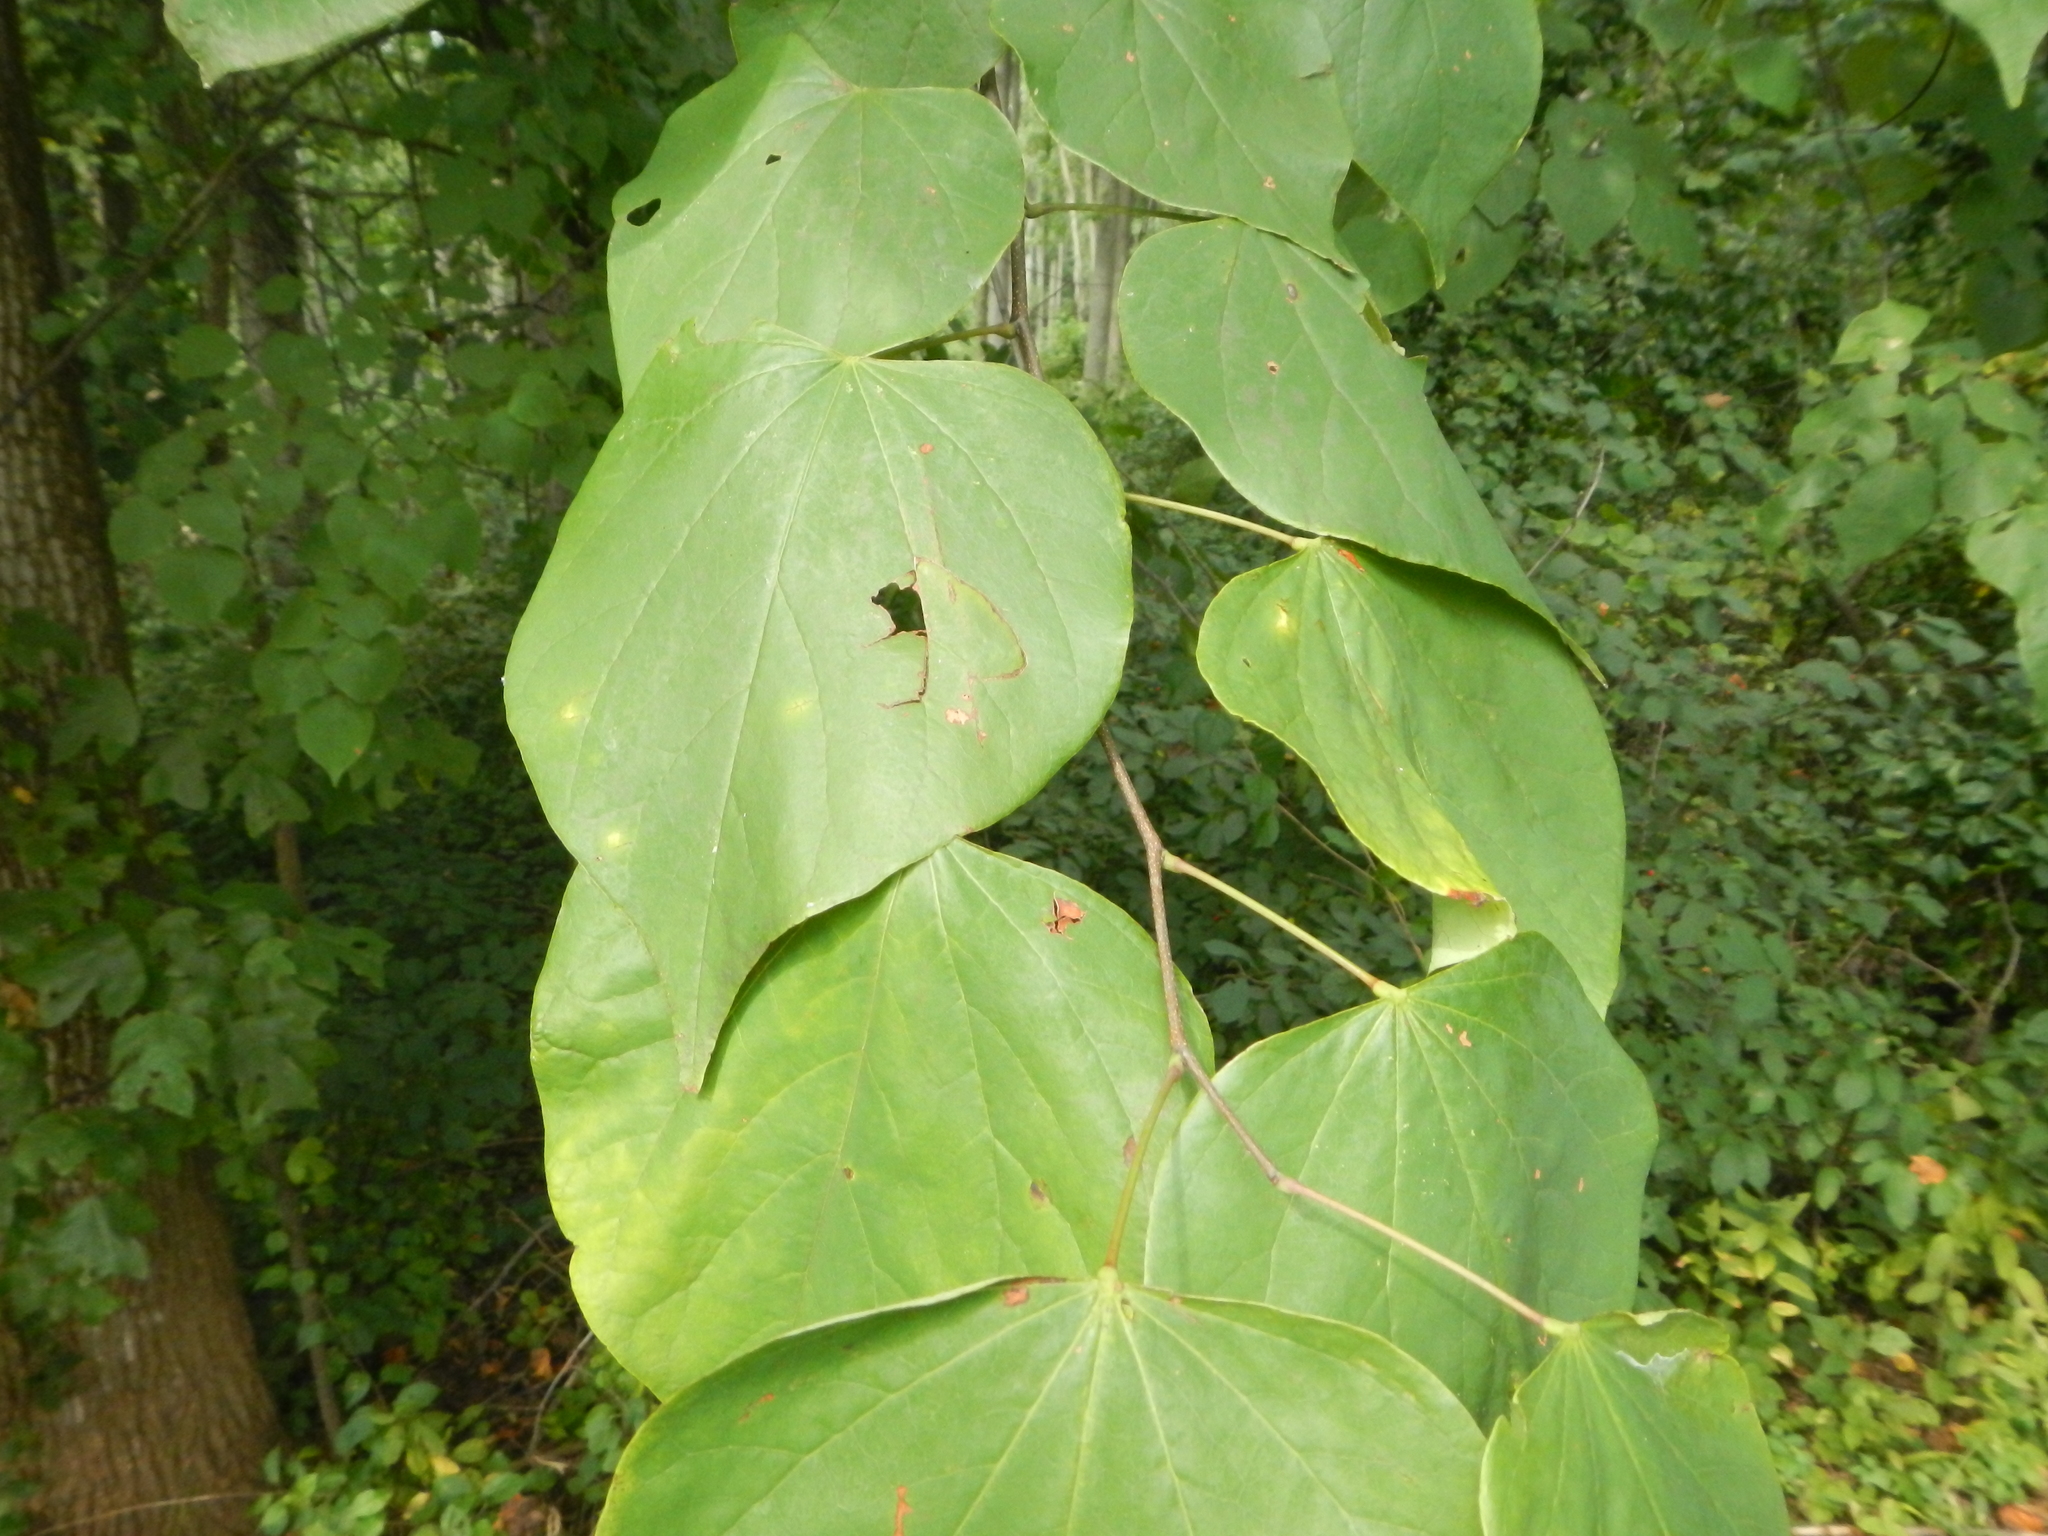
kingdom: Plantae
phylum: Tracheophyta
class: Magnoliopsida
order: Fabales
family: Fabaceae
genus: Cercis
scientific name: Cercis canadensis
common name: Eastern redbud
